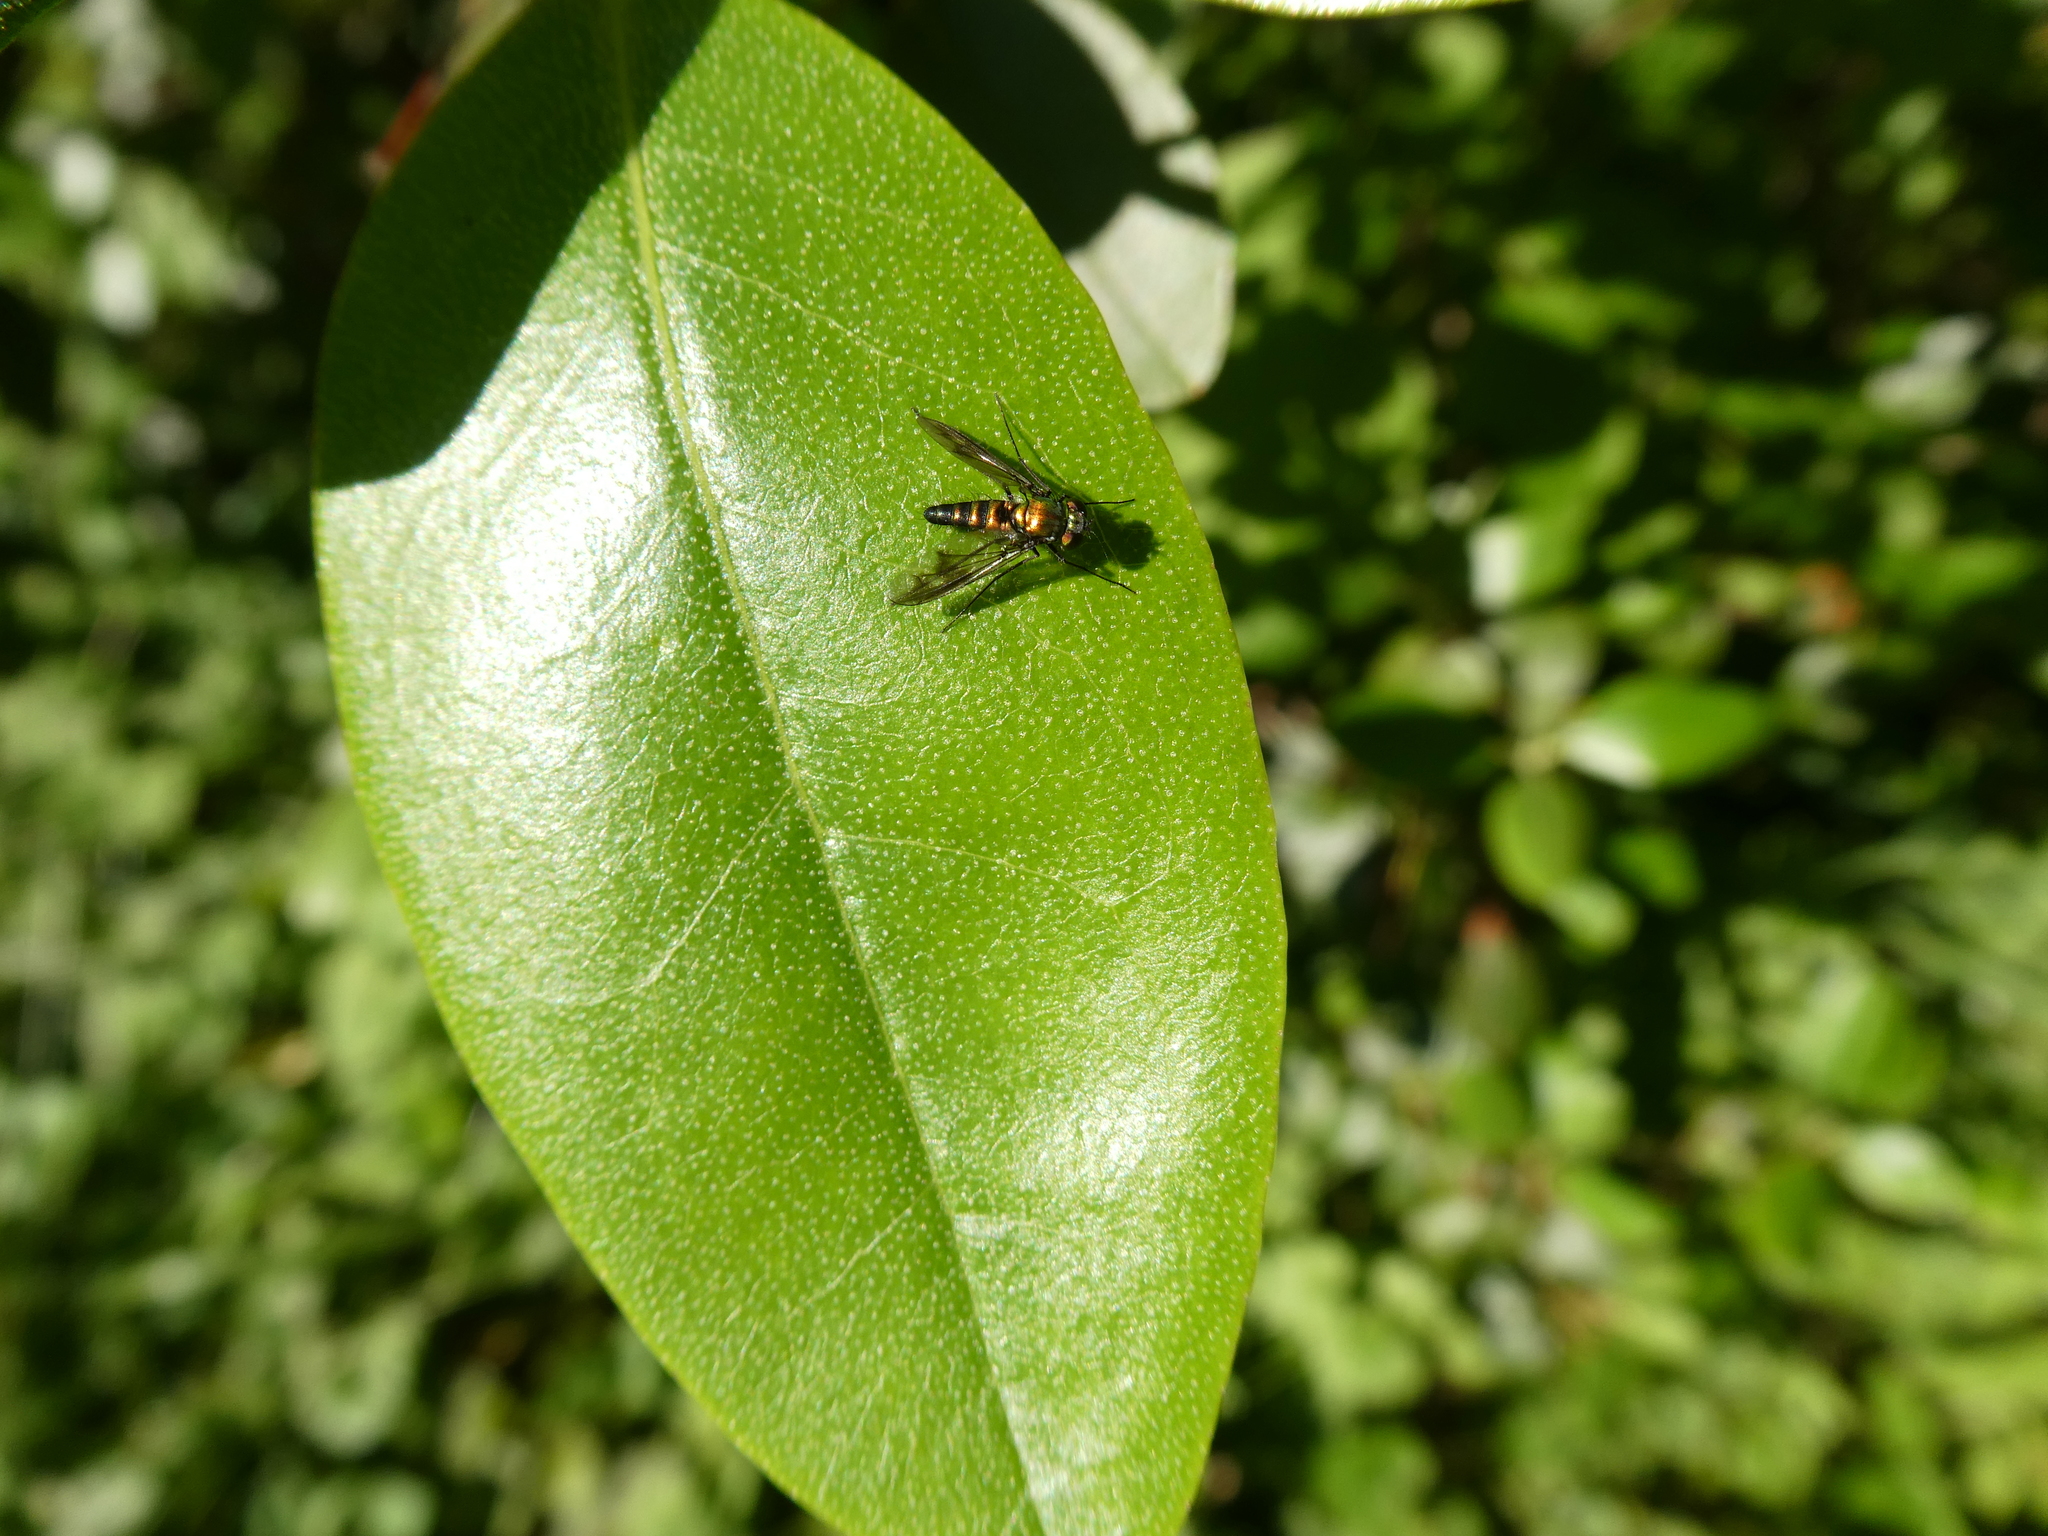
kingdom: Animalia
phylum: Arthropoda
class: Insecta
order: Diptera
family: Dolichopodidae
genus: Condylostylus
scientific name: Condylostylus patibulatus
